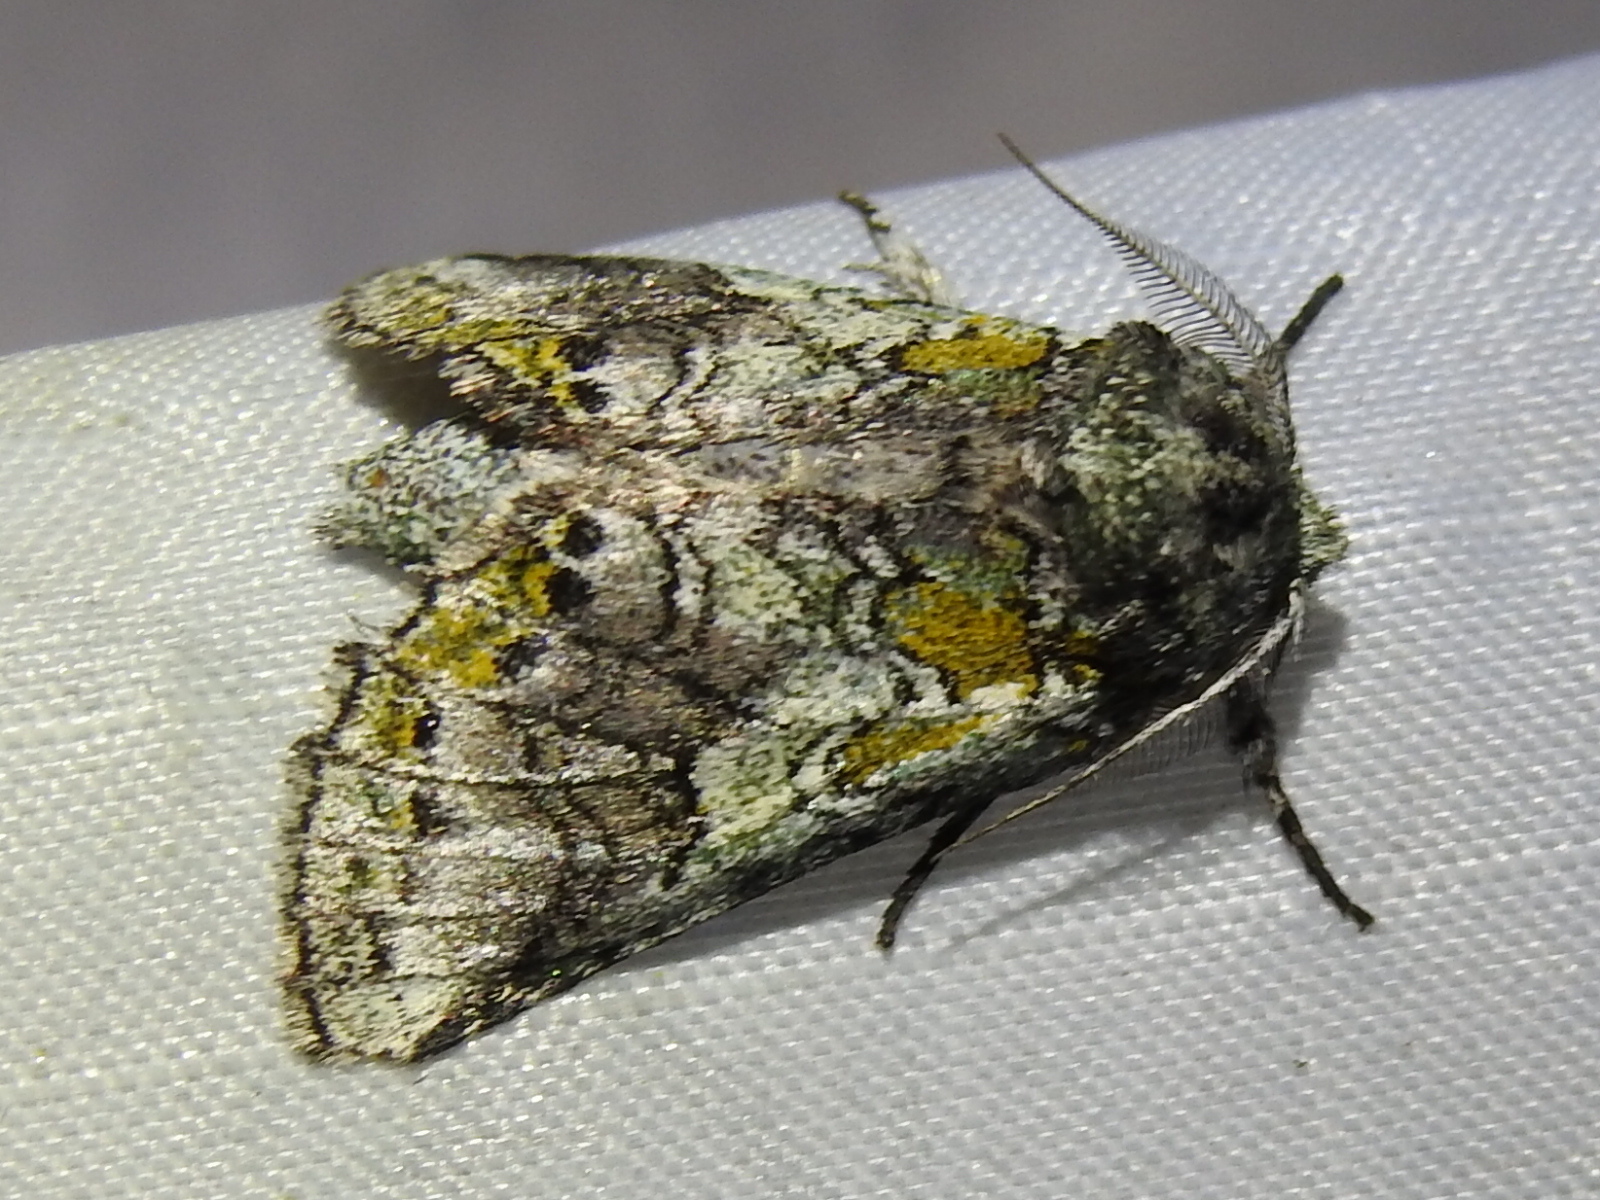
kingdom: Animalia
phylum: Arthropoda
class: Insecta
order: Lepidoptera
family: Notodontidae
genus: Litodonta
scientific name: Litodonta hydromeli
